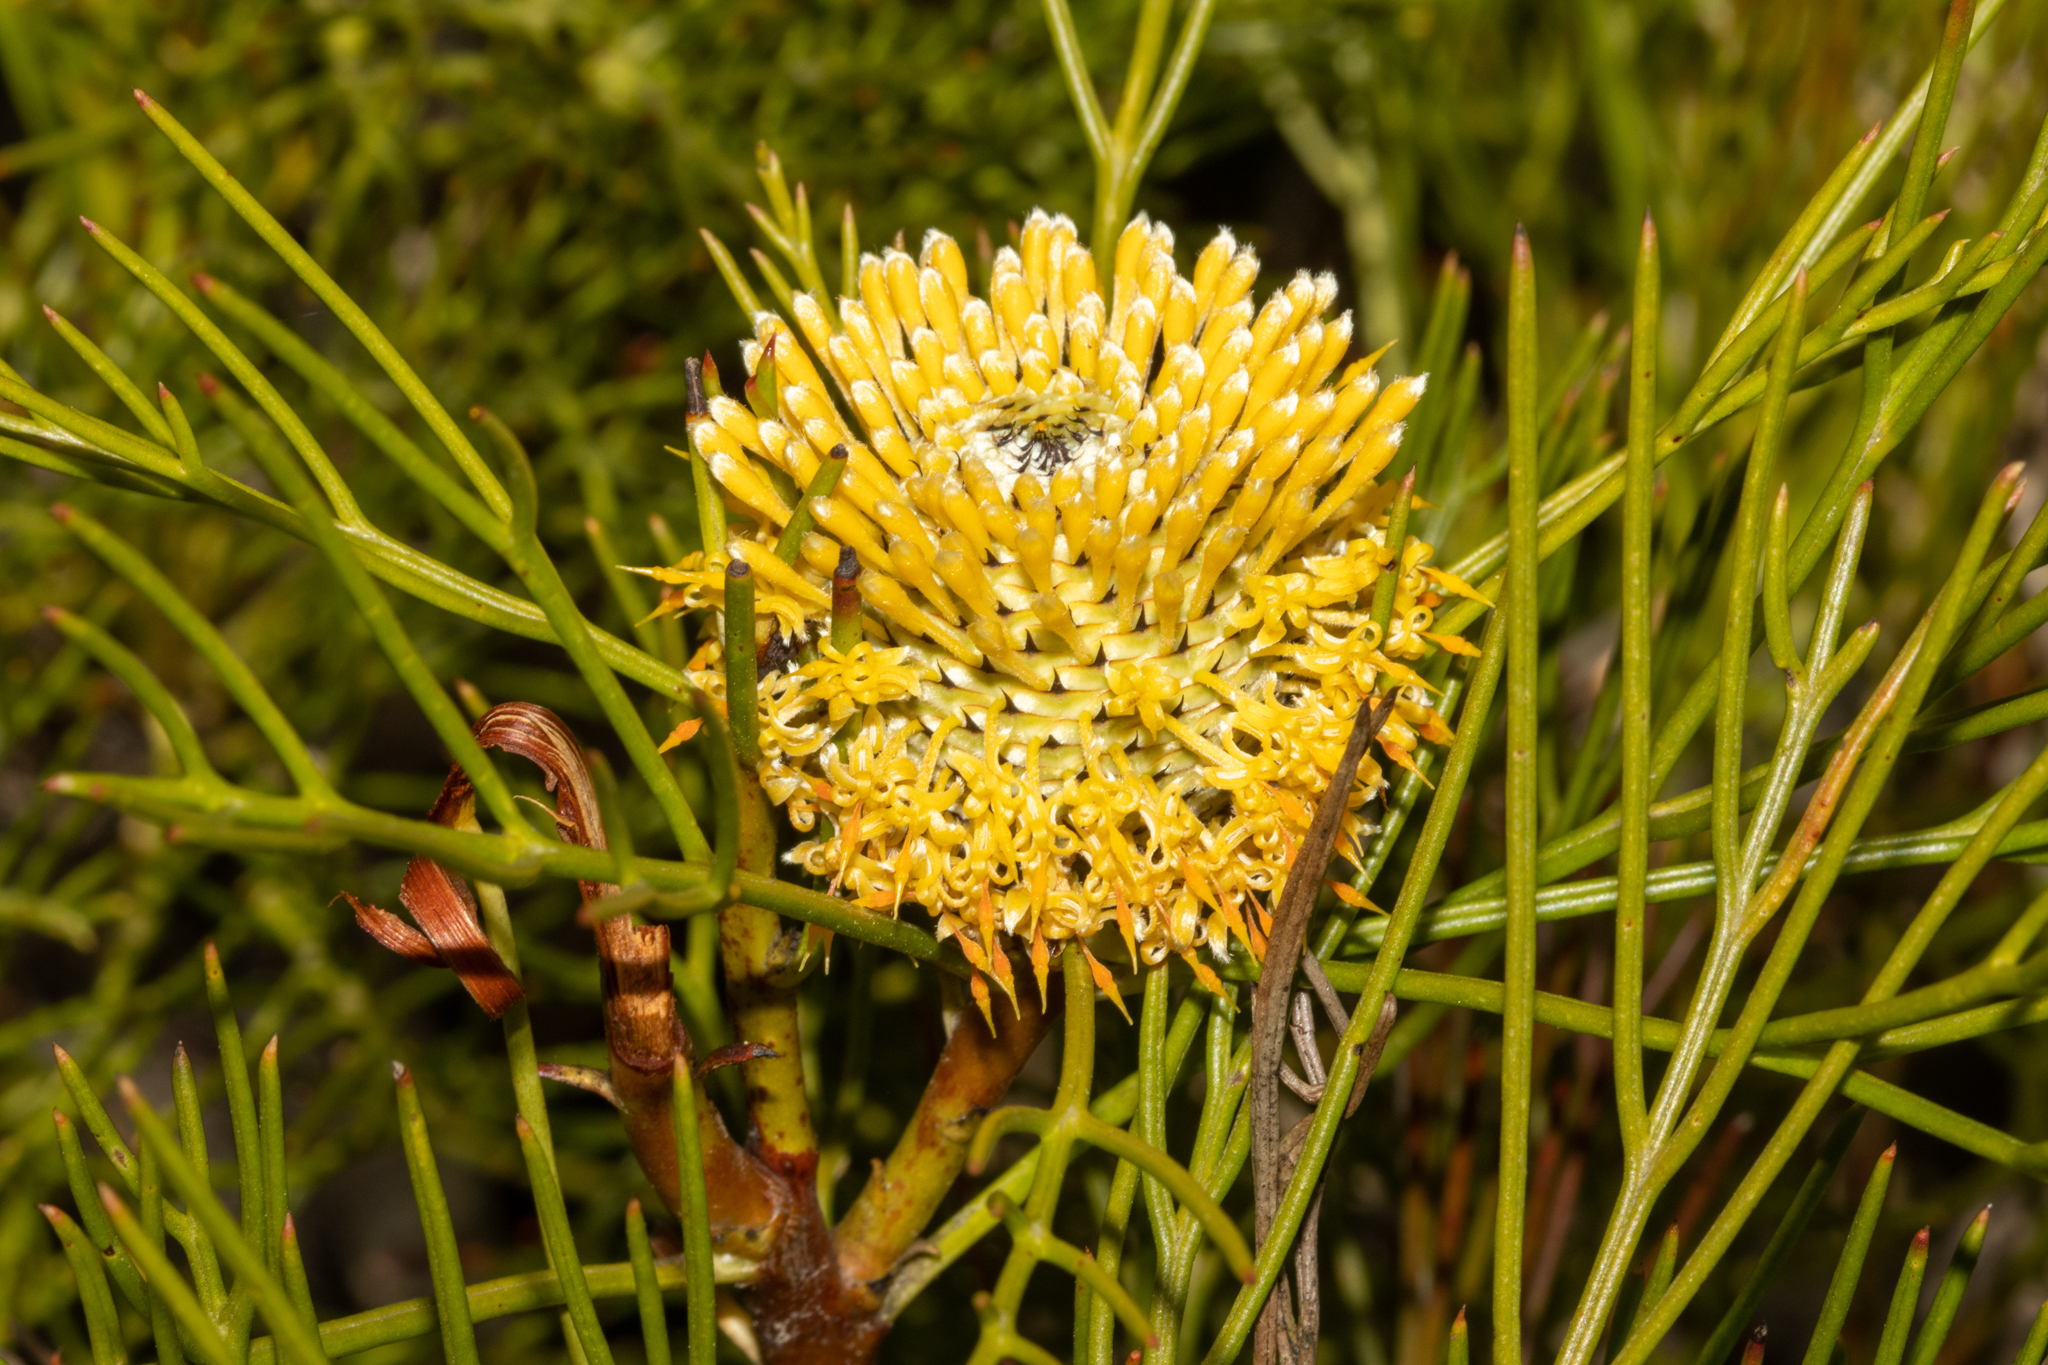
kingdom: Plantae
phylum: Tracheophyta
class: Magnoliopsida
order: Proteales
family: Proteaceae
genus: Isopogon
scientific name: Isopogon anethifolius
